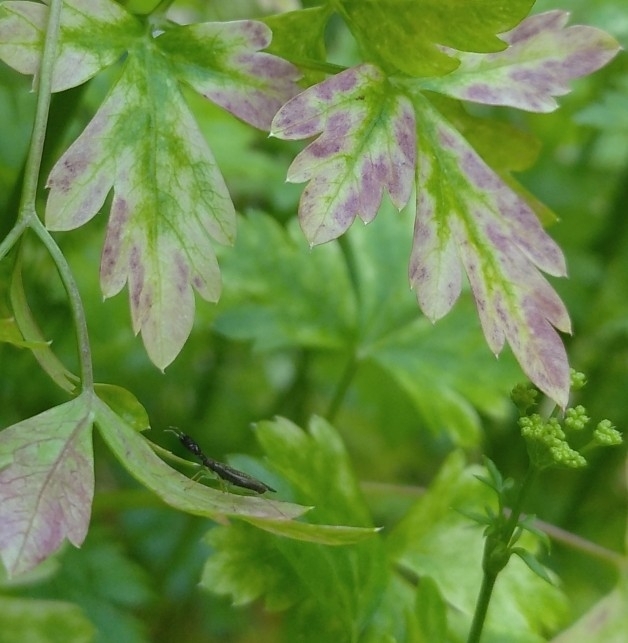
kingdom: Animalia
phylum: Arthropoda
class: Insecta
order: Hemiptera
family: Miridae
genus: Heterotoma
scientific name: Heterotoma planicornis
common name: Plant bug
